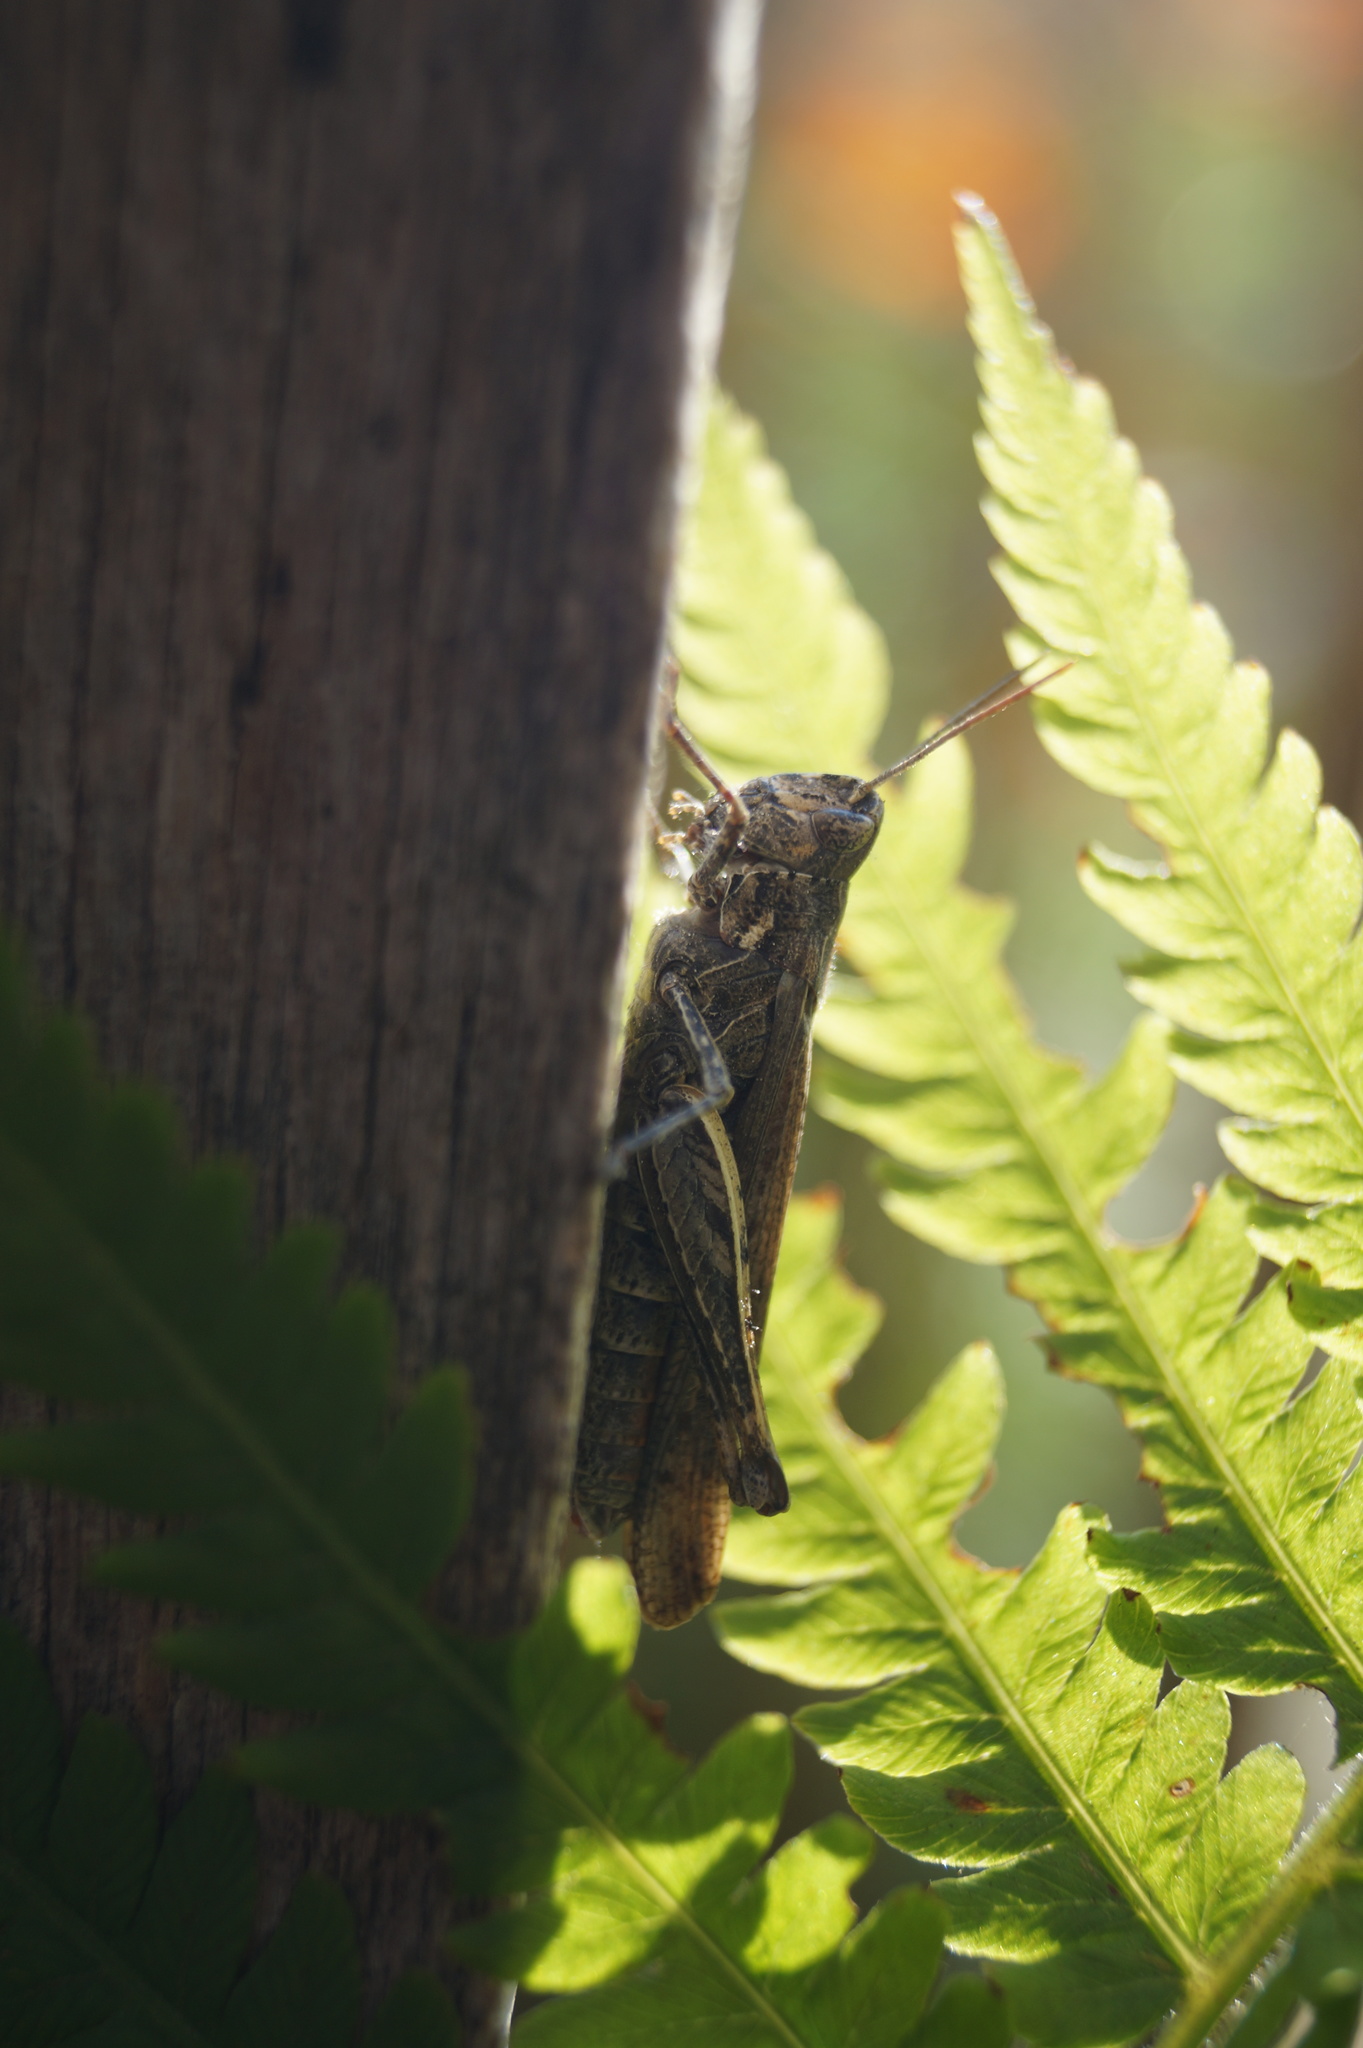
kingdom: Animalia
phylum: Arthropoda
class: Insecta
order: Orthoptera
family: Acrididae
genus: Chorthippus
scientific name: Chorthippus brunneus
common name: Field grasshopper
